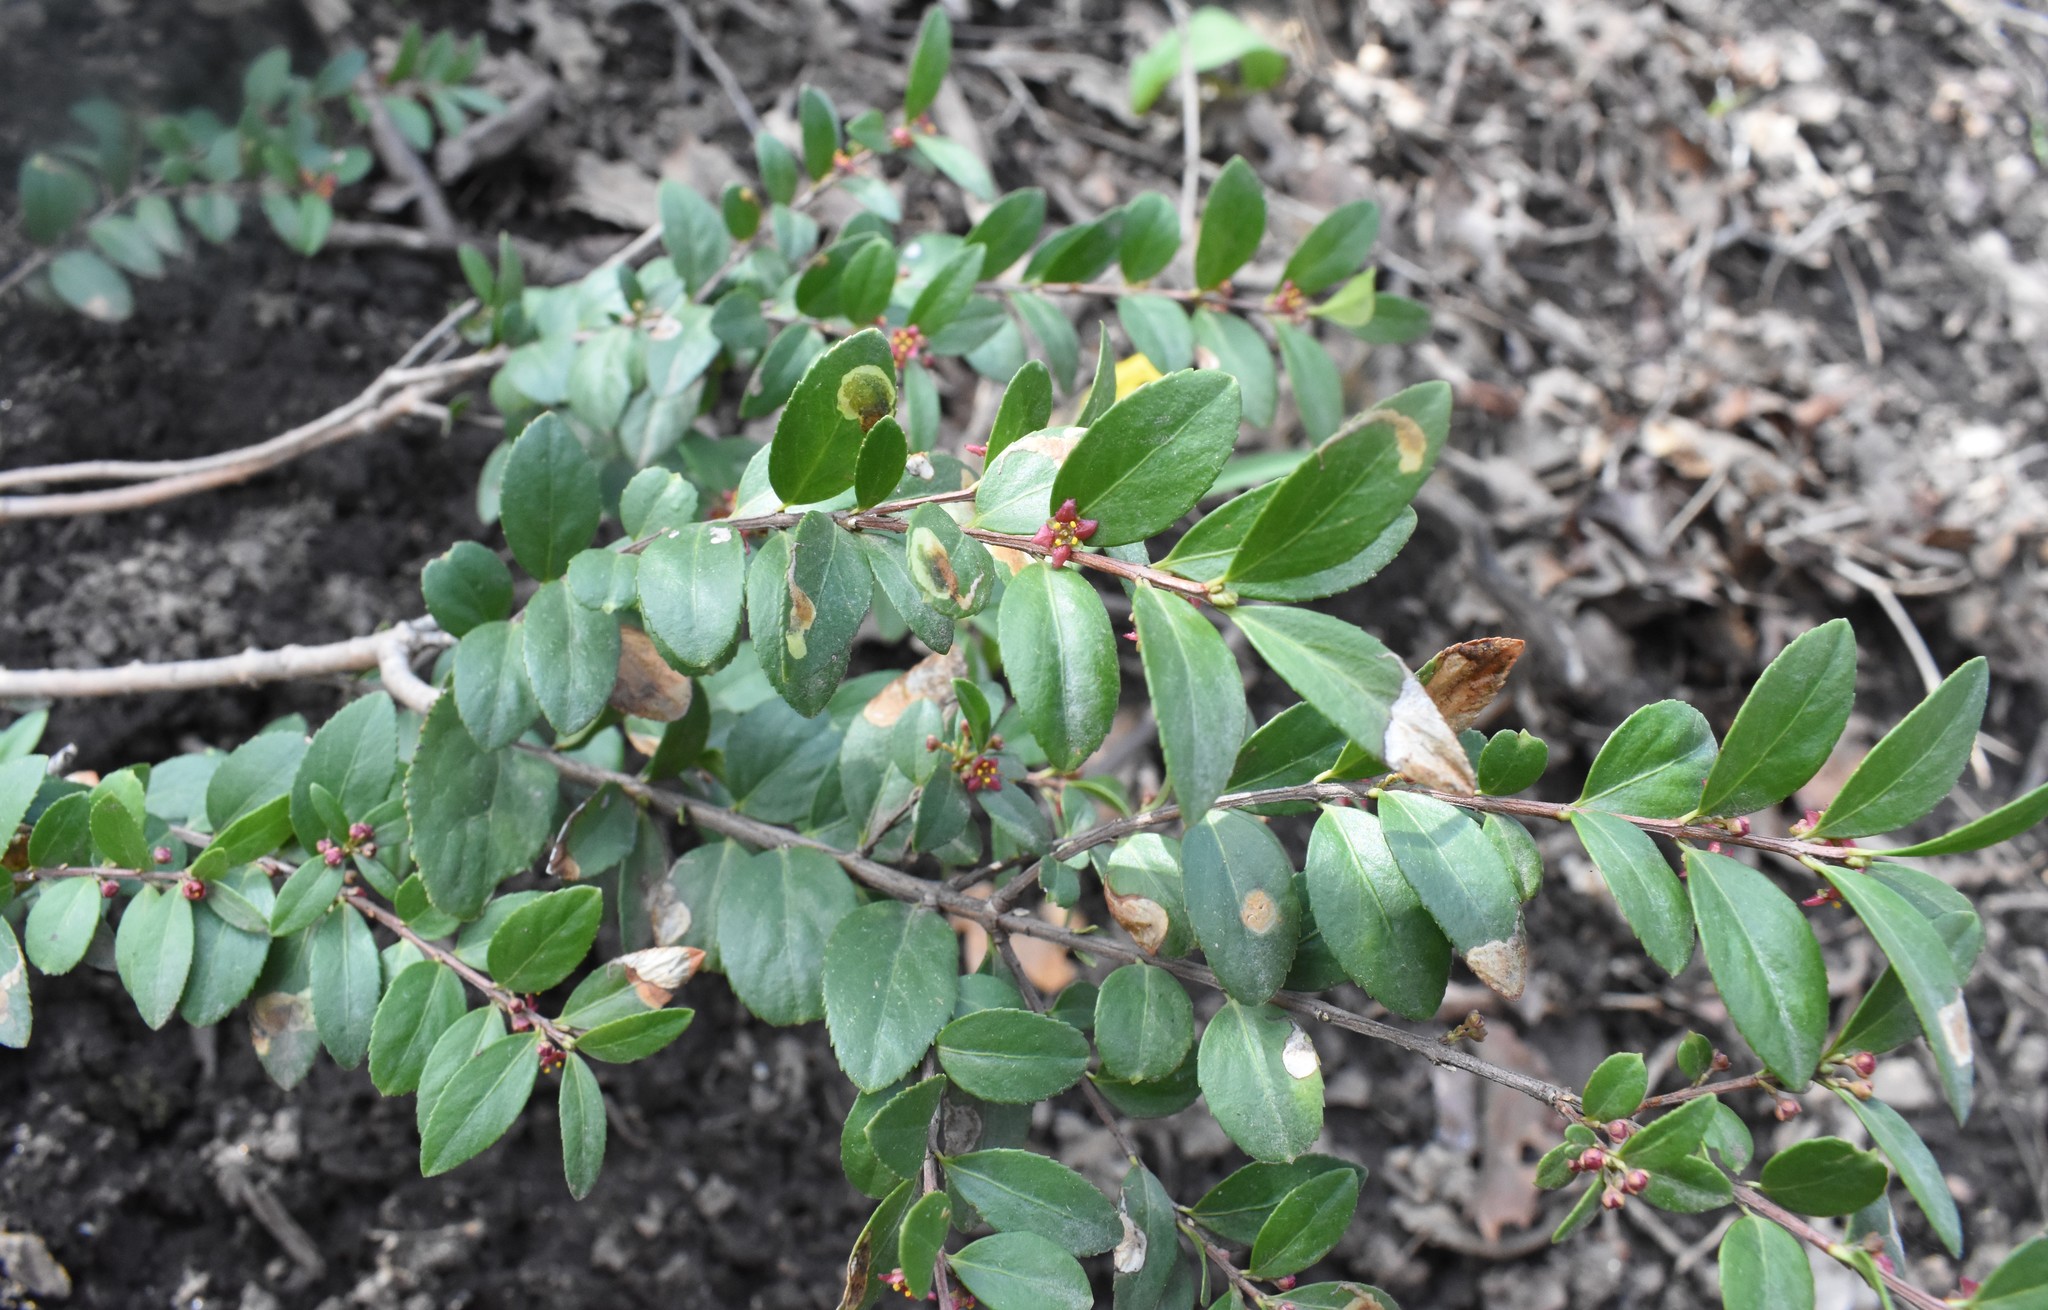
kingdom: Plantae
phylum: Tracheophyta
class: Magnoliopsida
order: Celastrales
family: Celastraceae
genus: Paxistima
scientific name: Paxistima myrsinites
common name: Mountain-lover
